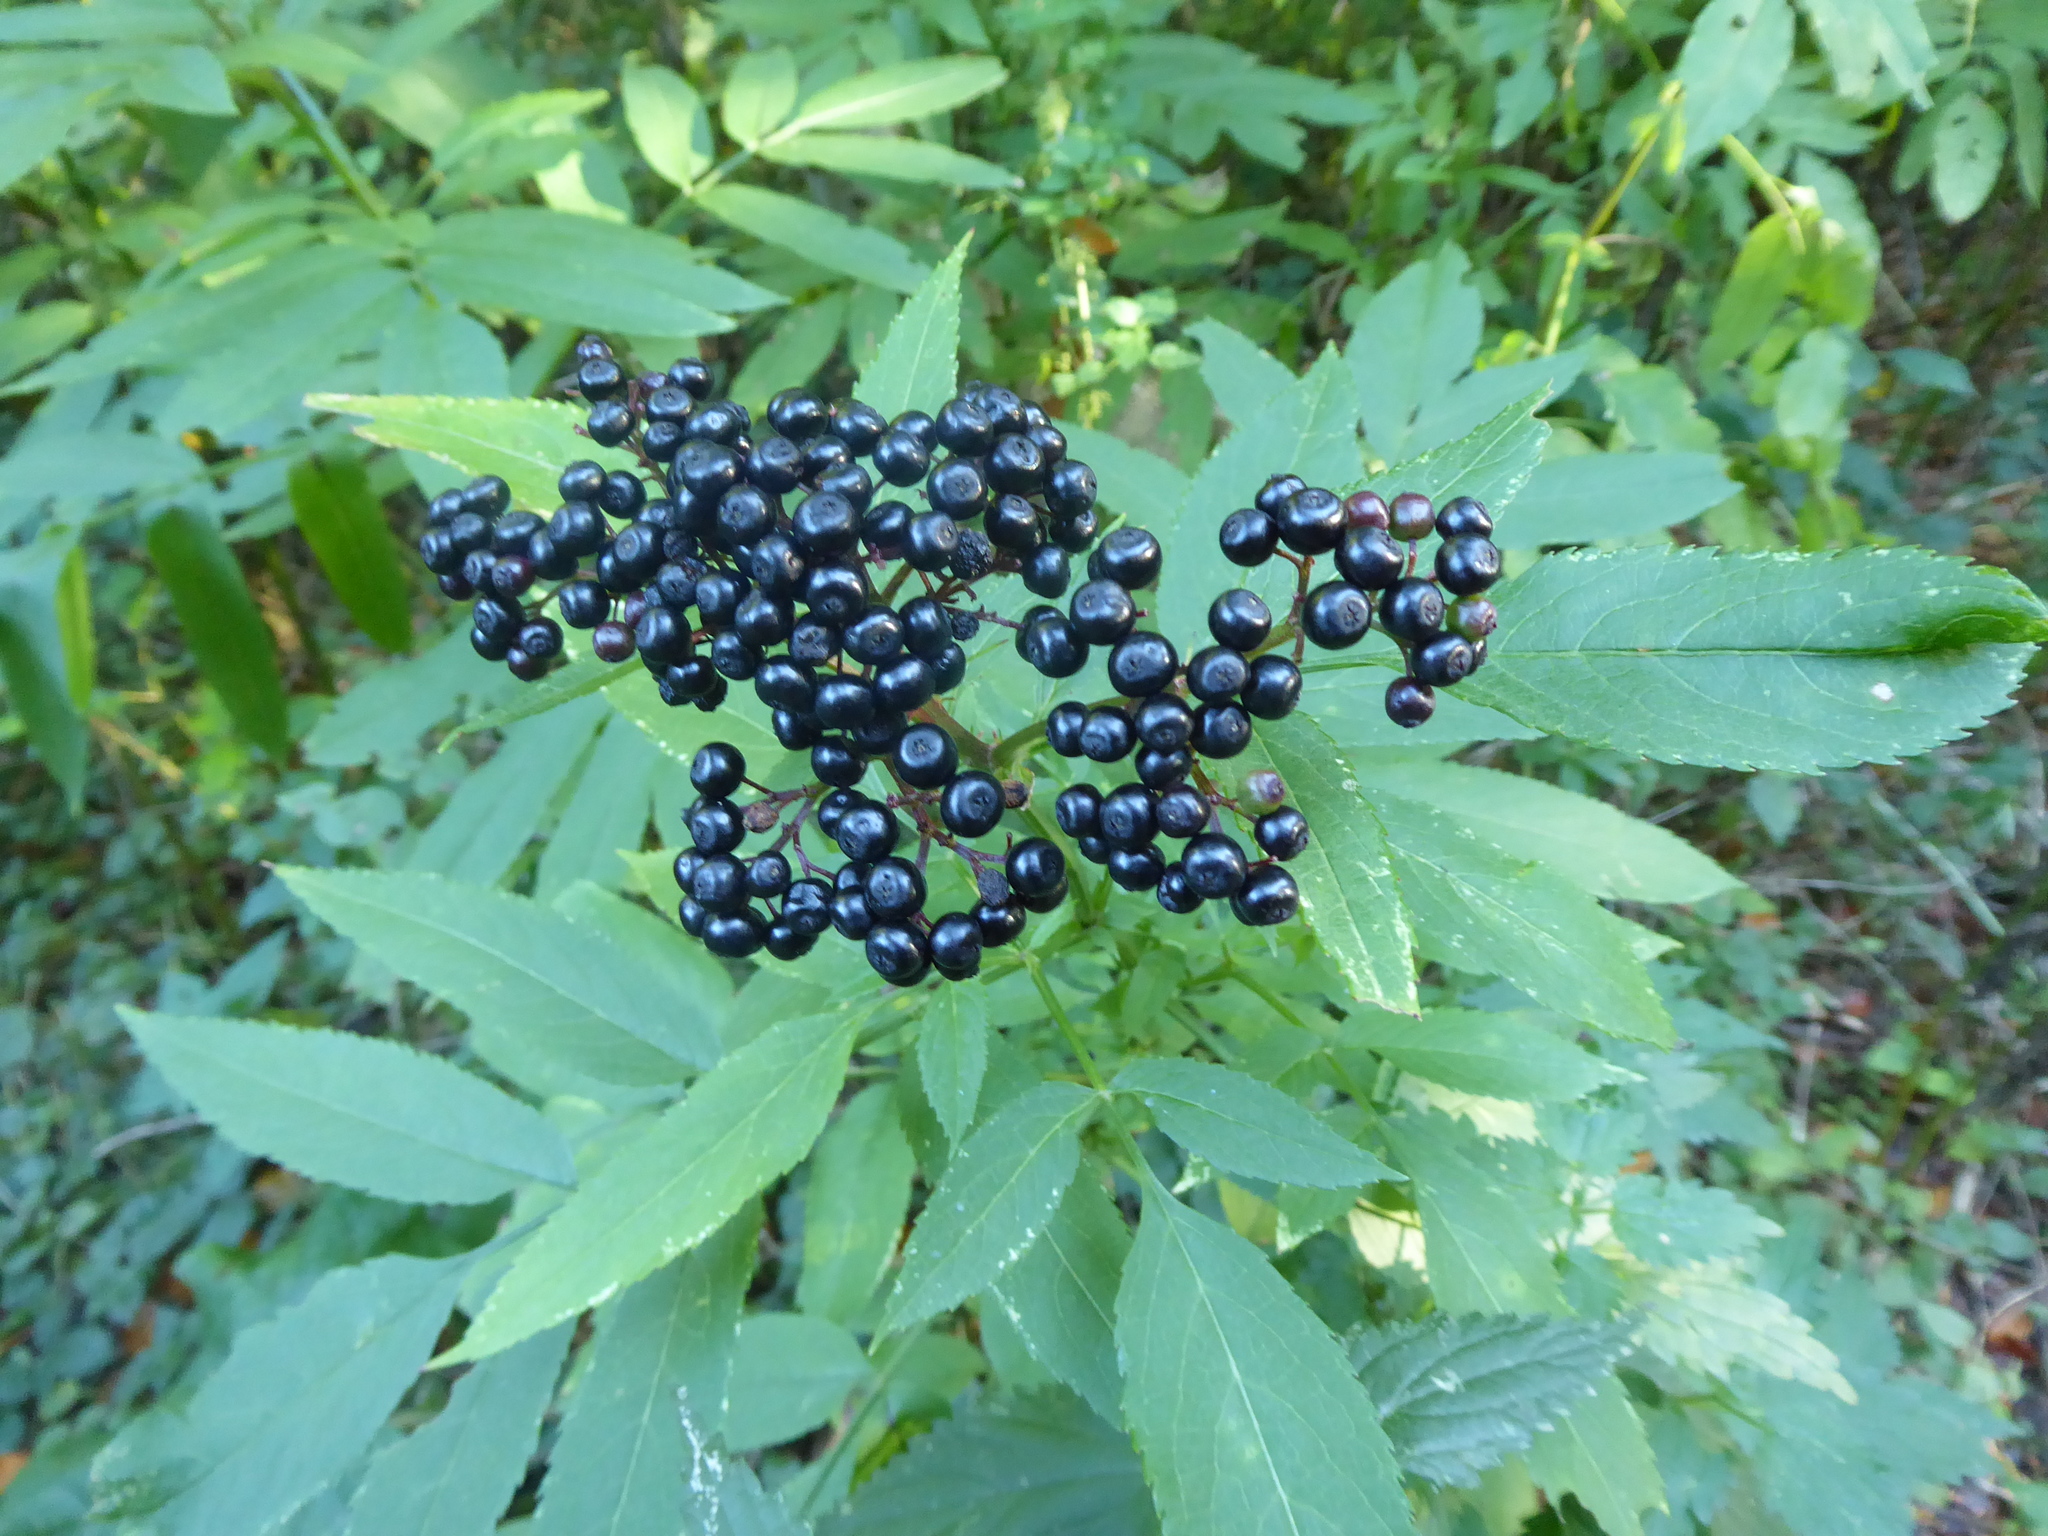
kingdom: Plantae
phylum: Tracheophyta
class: Magnoliopsida
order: Dipsacales
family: Viburnaceae
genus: Sambucus
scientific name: Sambucus ebulus
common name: Dwarf elder
